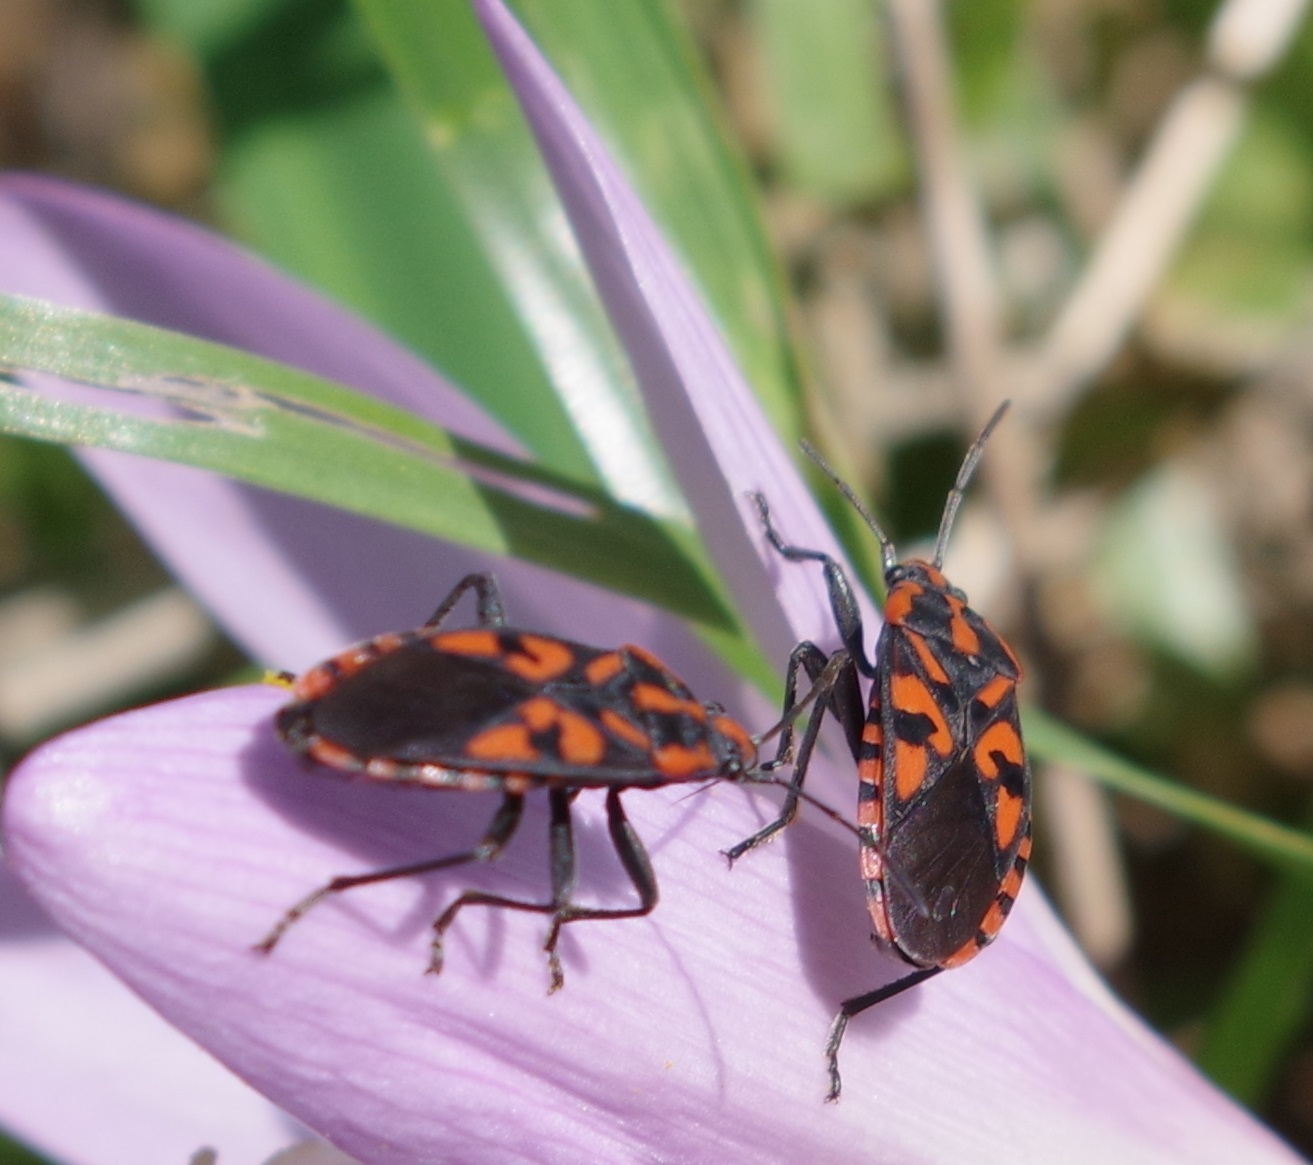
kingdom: Animalia
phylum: Arthropoda
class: Insecta
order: Hemiptera
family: Lygaeidae
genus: Spilostethus
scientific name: Spilostethus saxatilis
